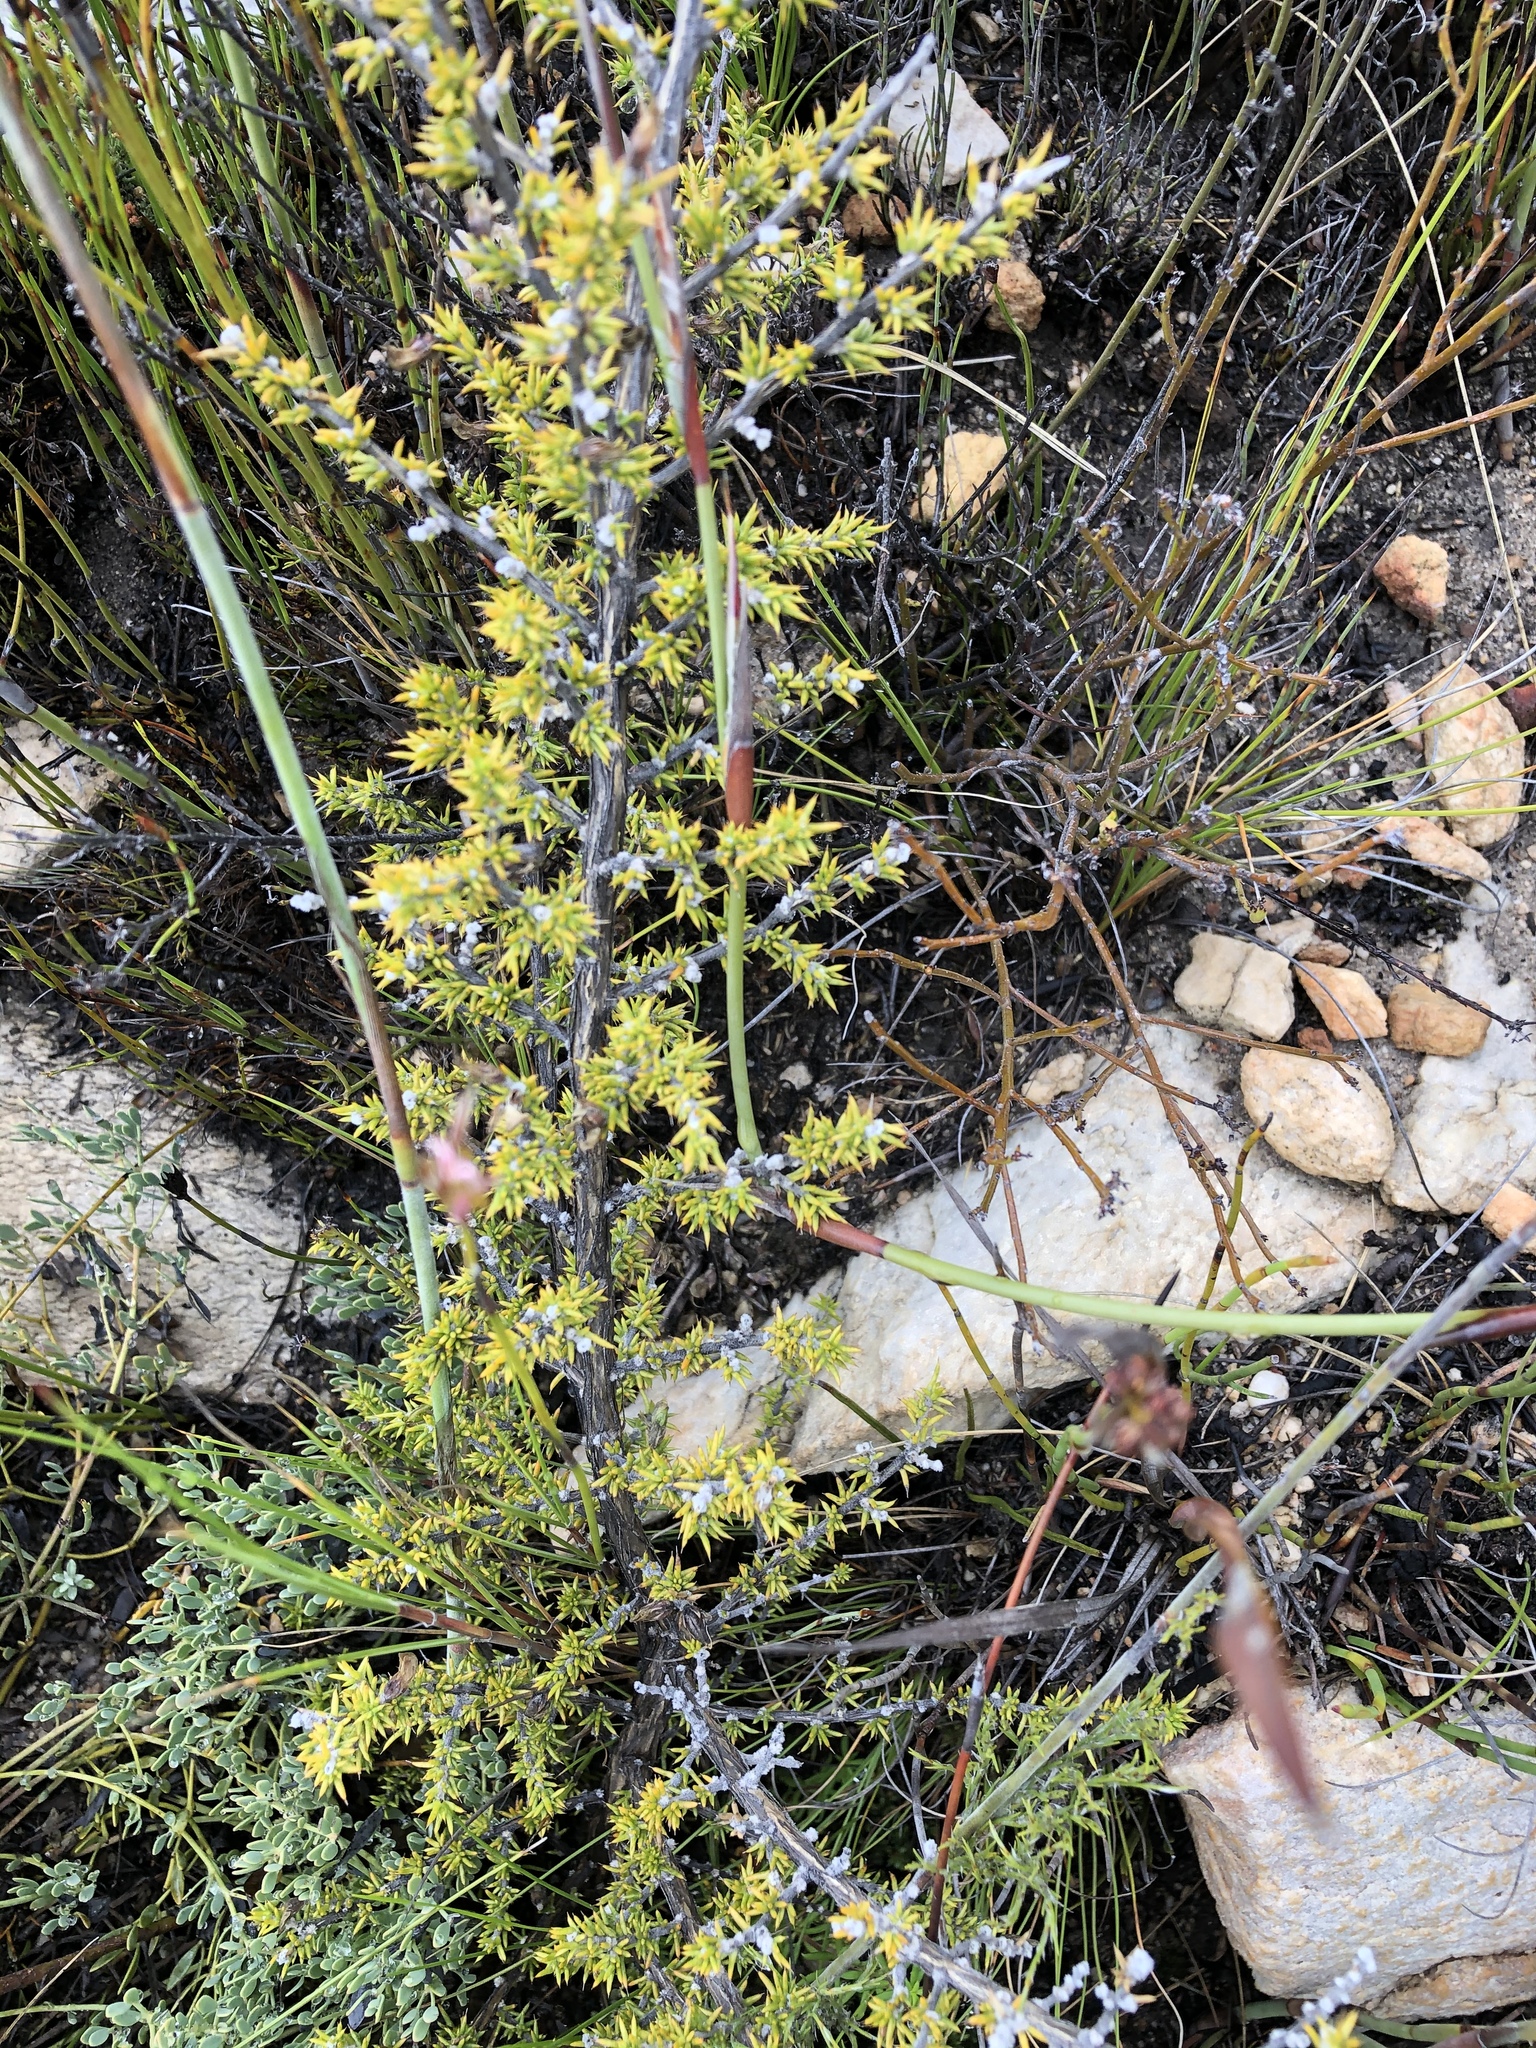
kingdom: Plantae
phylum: Tracheophyta
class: Magnoliopsida
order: Fabales
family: Fabaceae
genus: Aspalathus
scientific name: Aspalathus aciphylla
